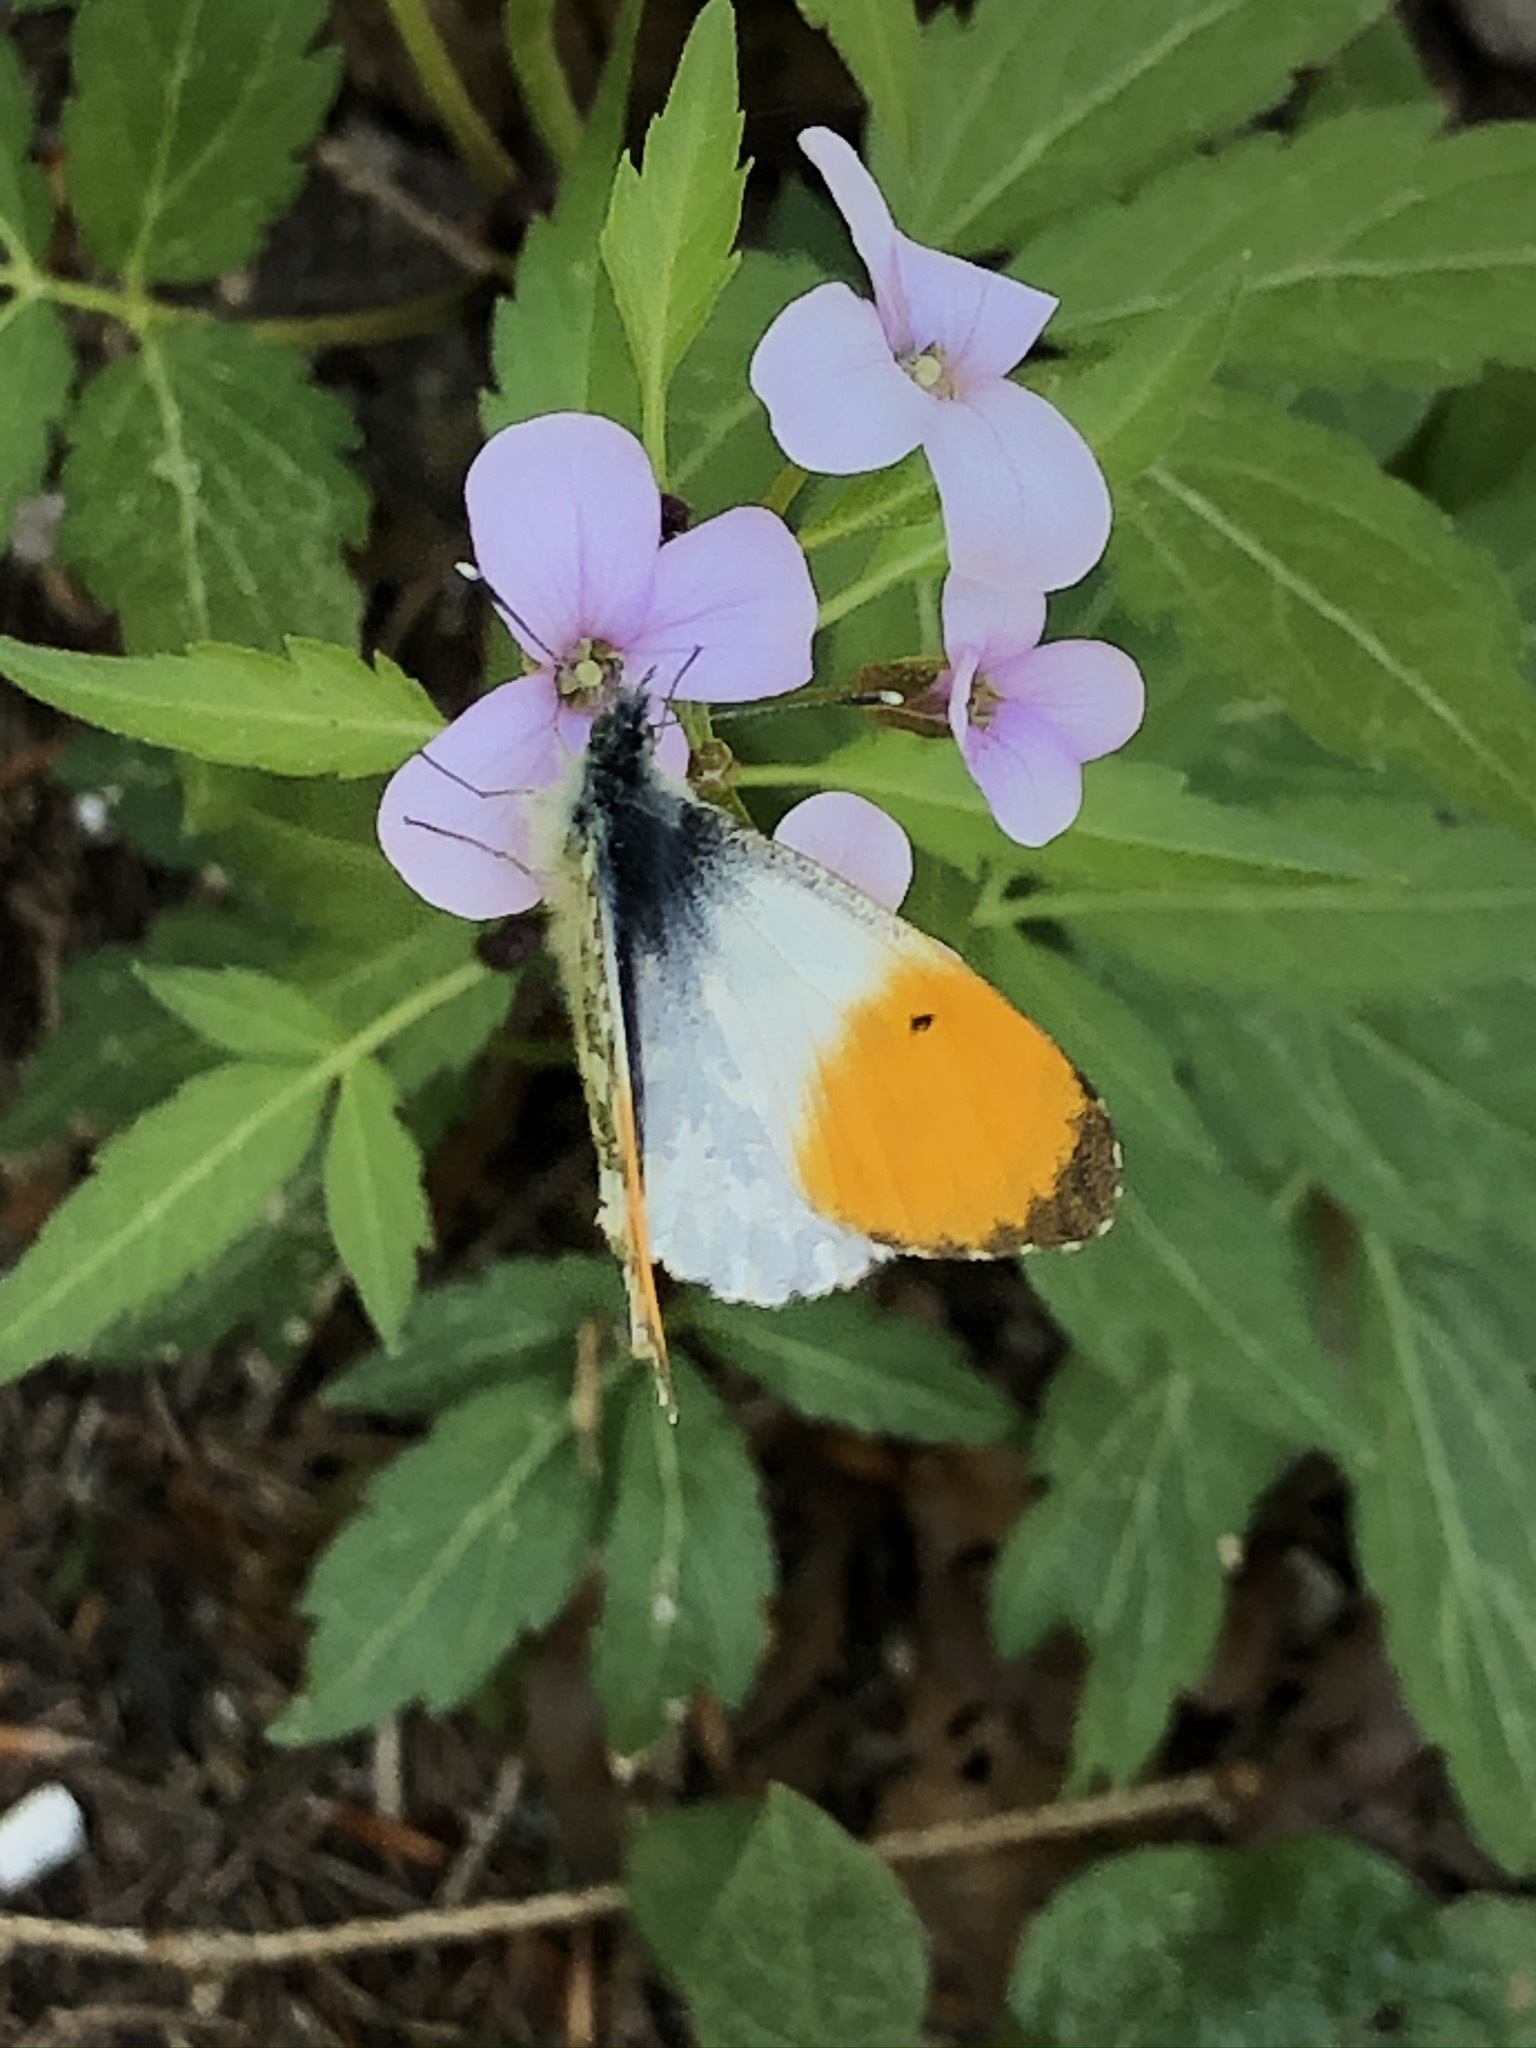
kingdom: Animalia
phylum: Arthropoda
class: Insecta
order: Lepidoptera
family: Pieridae
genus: Anthocharis
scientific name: Anthocharis cardamines
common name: Orange-tip
